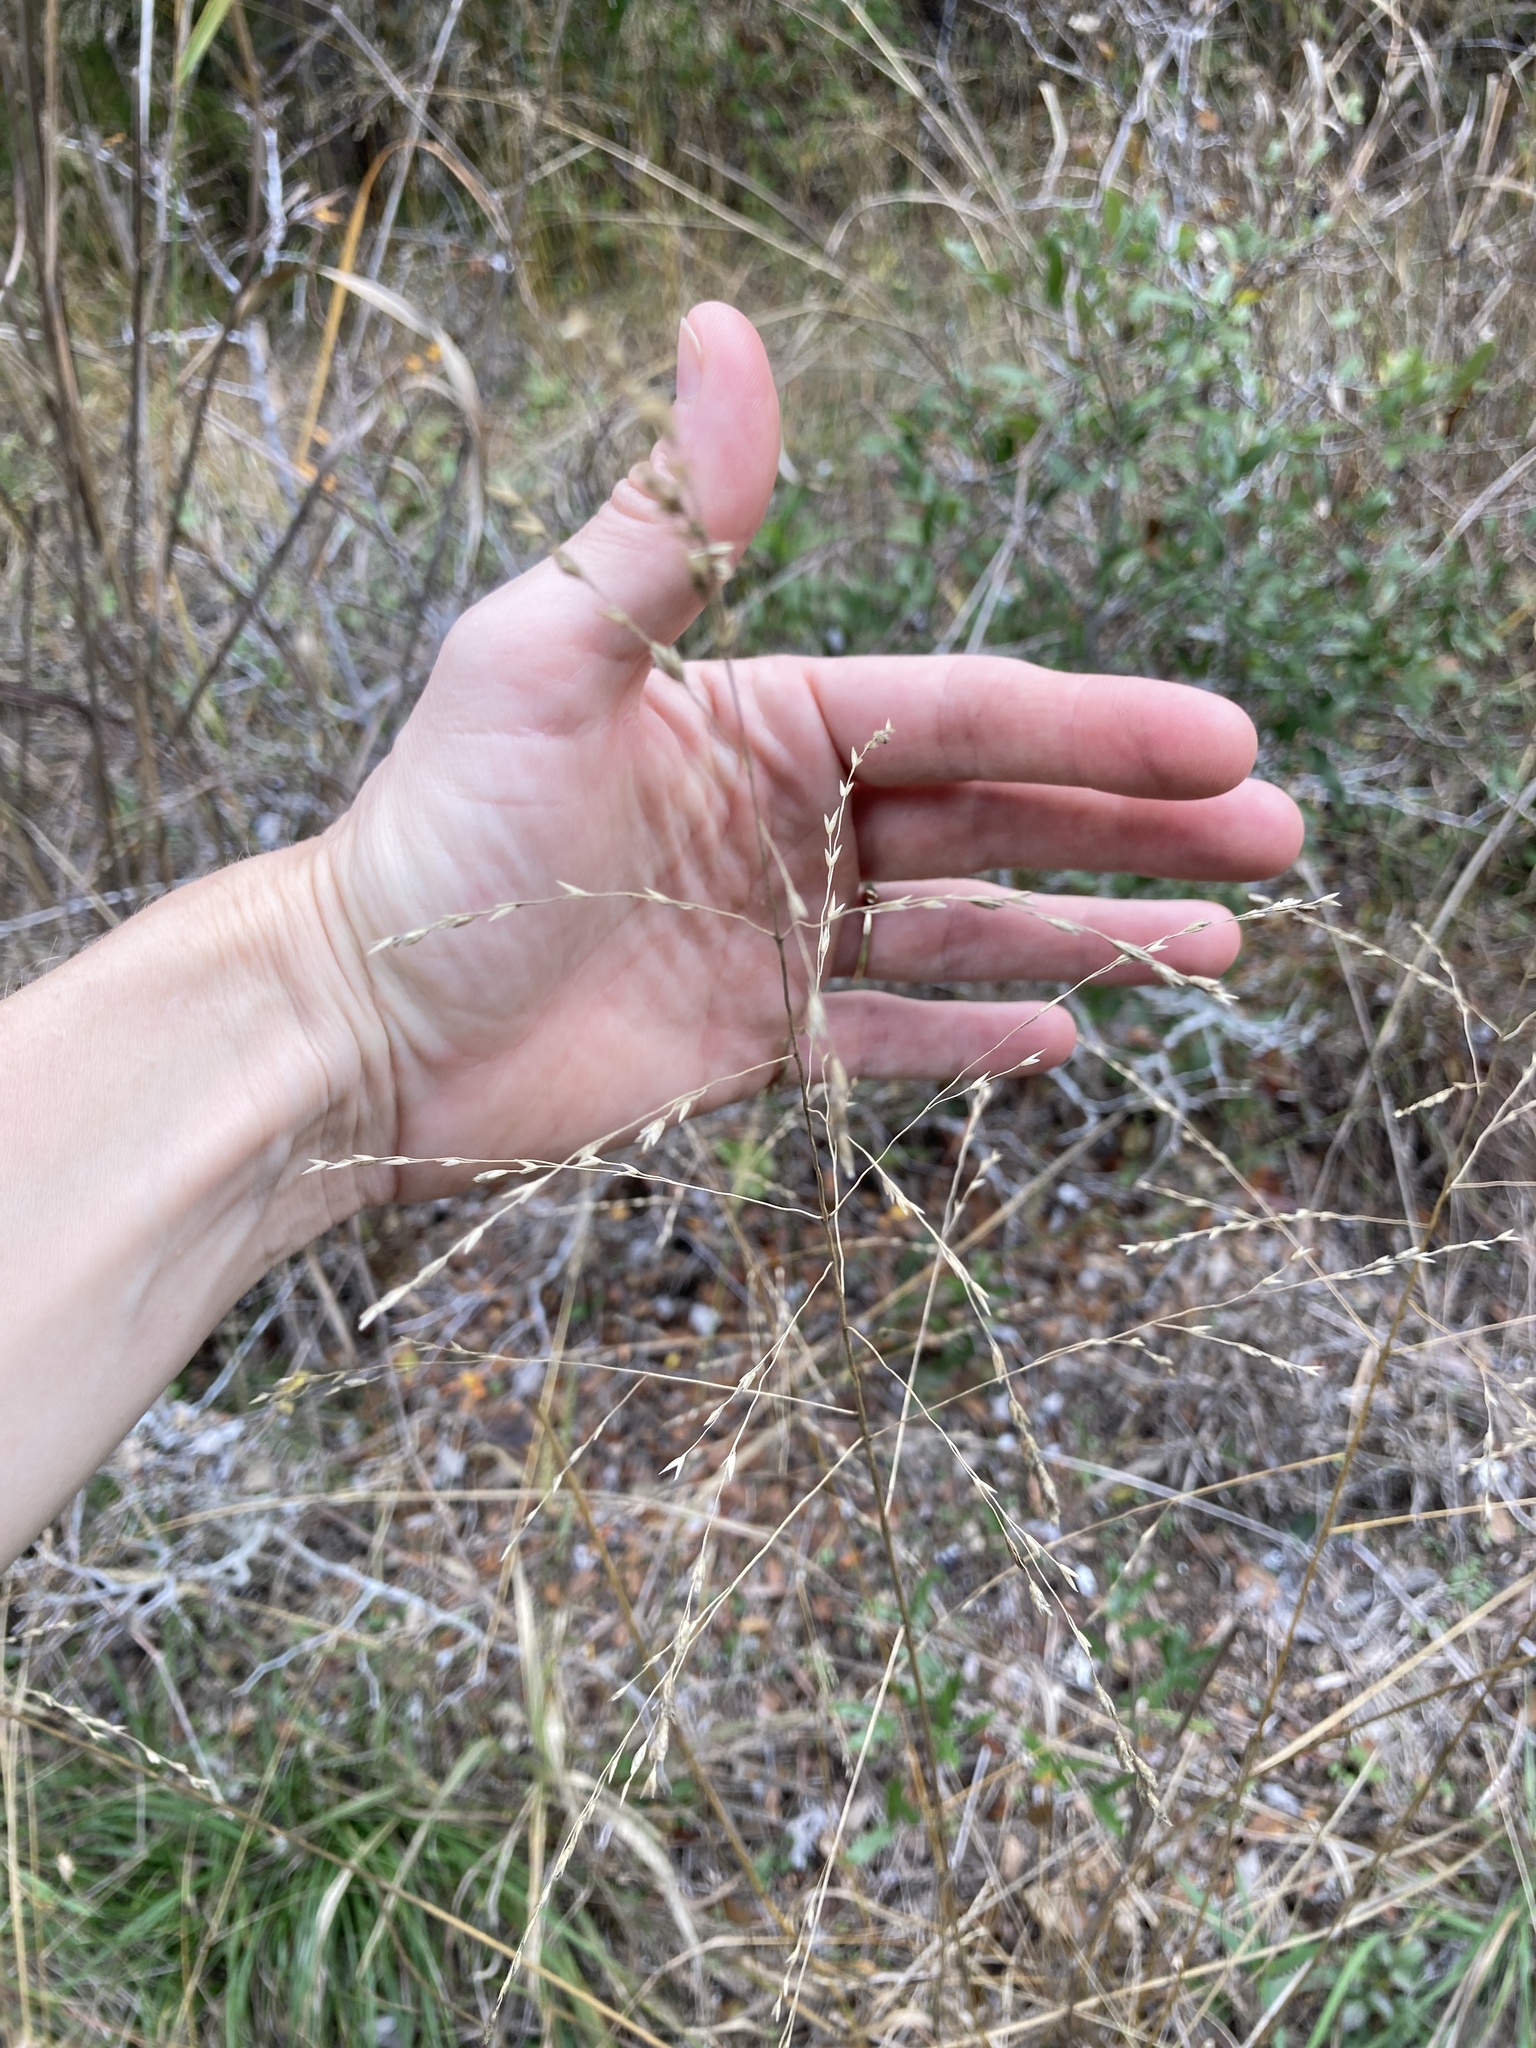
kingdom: Plantae
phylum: Tracheophyta
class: Liliopsida
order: Poales
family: Poaceae
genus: Tridens
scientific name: Tridens flavus
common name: Purpletop
